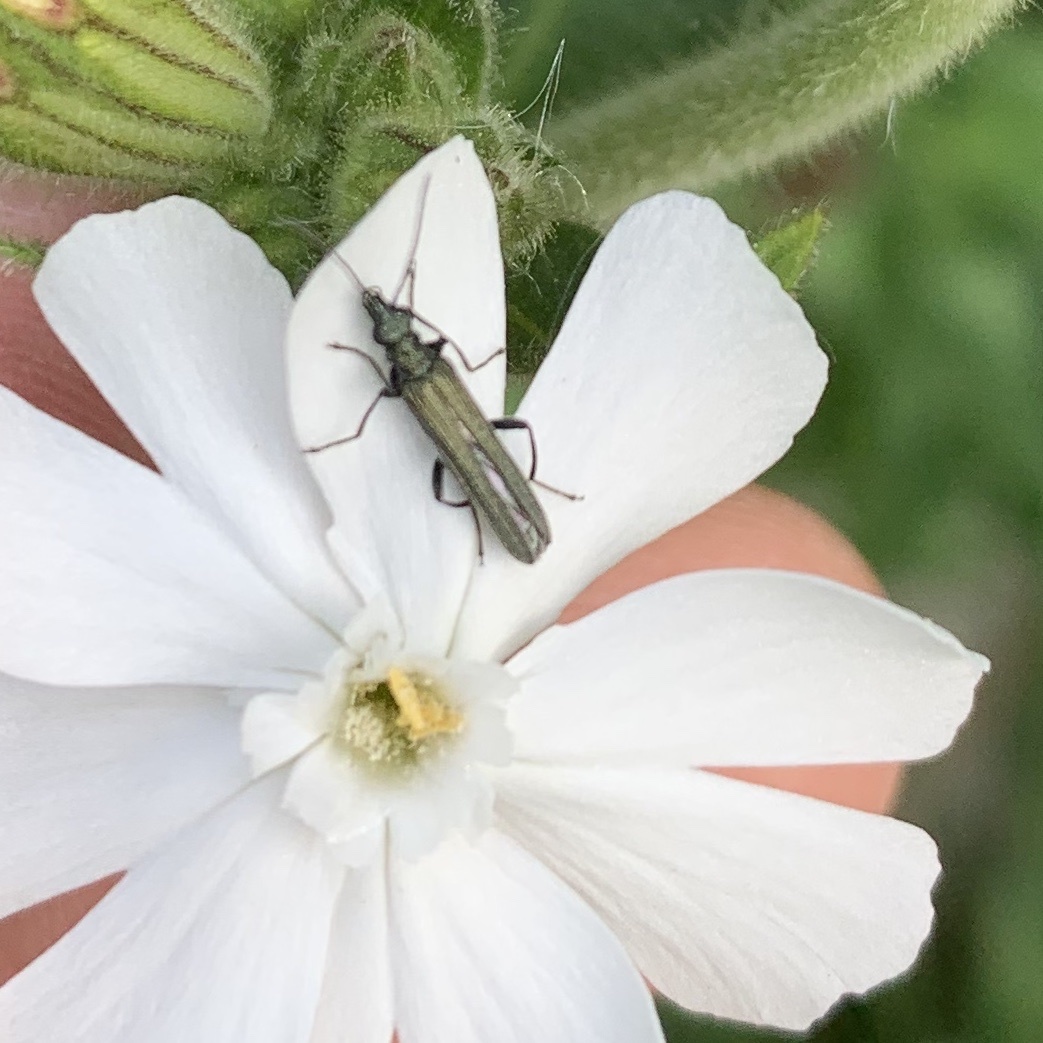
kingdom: Animalia
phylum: Arthropoda
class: Insecta
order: Coleoptera
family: Oedemeridae
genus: Oedemera
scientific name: Oedemera lurida
